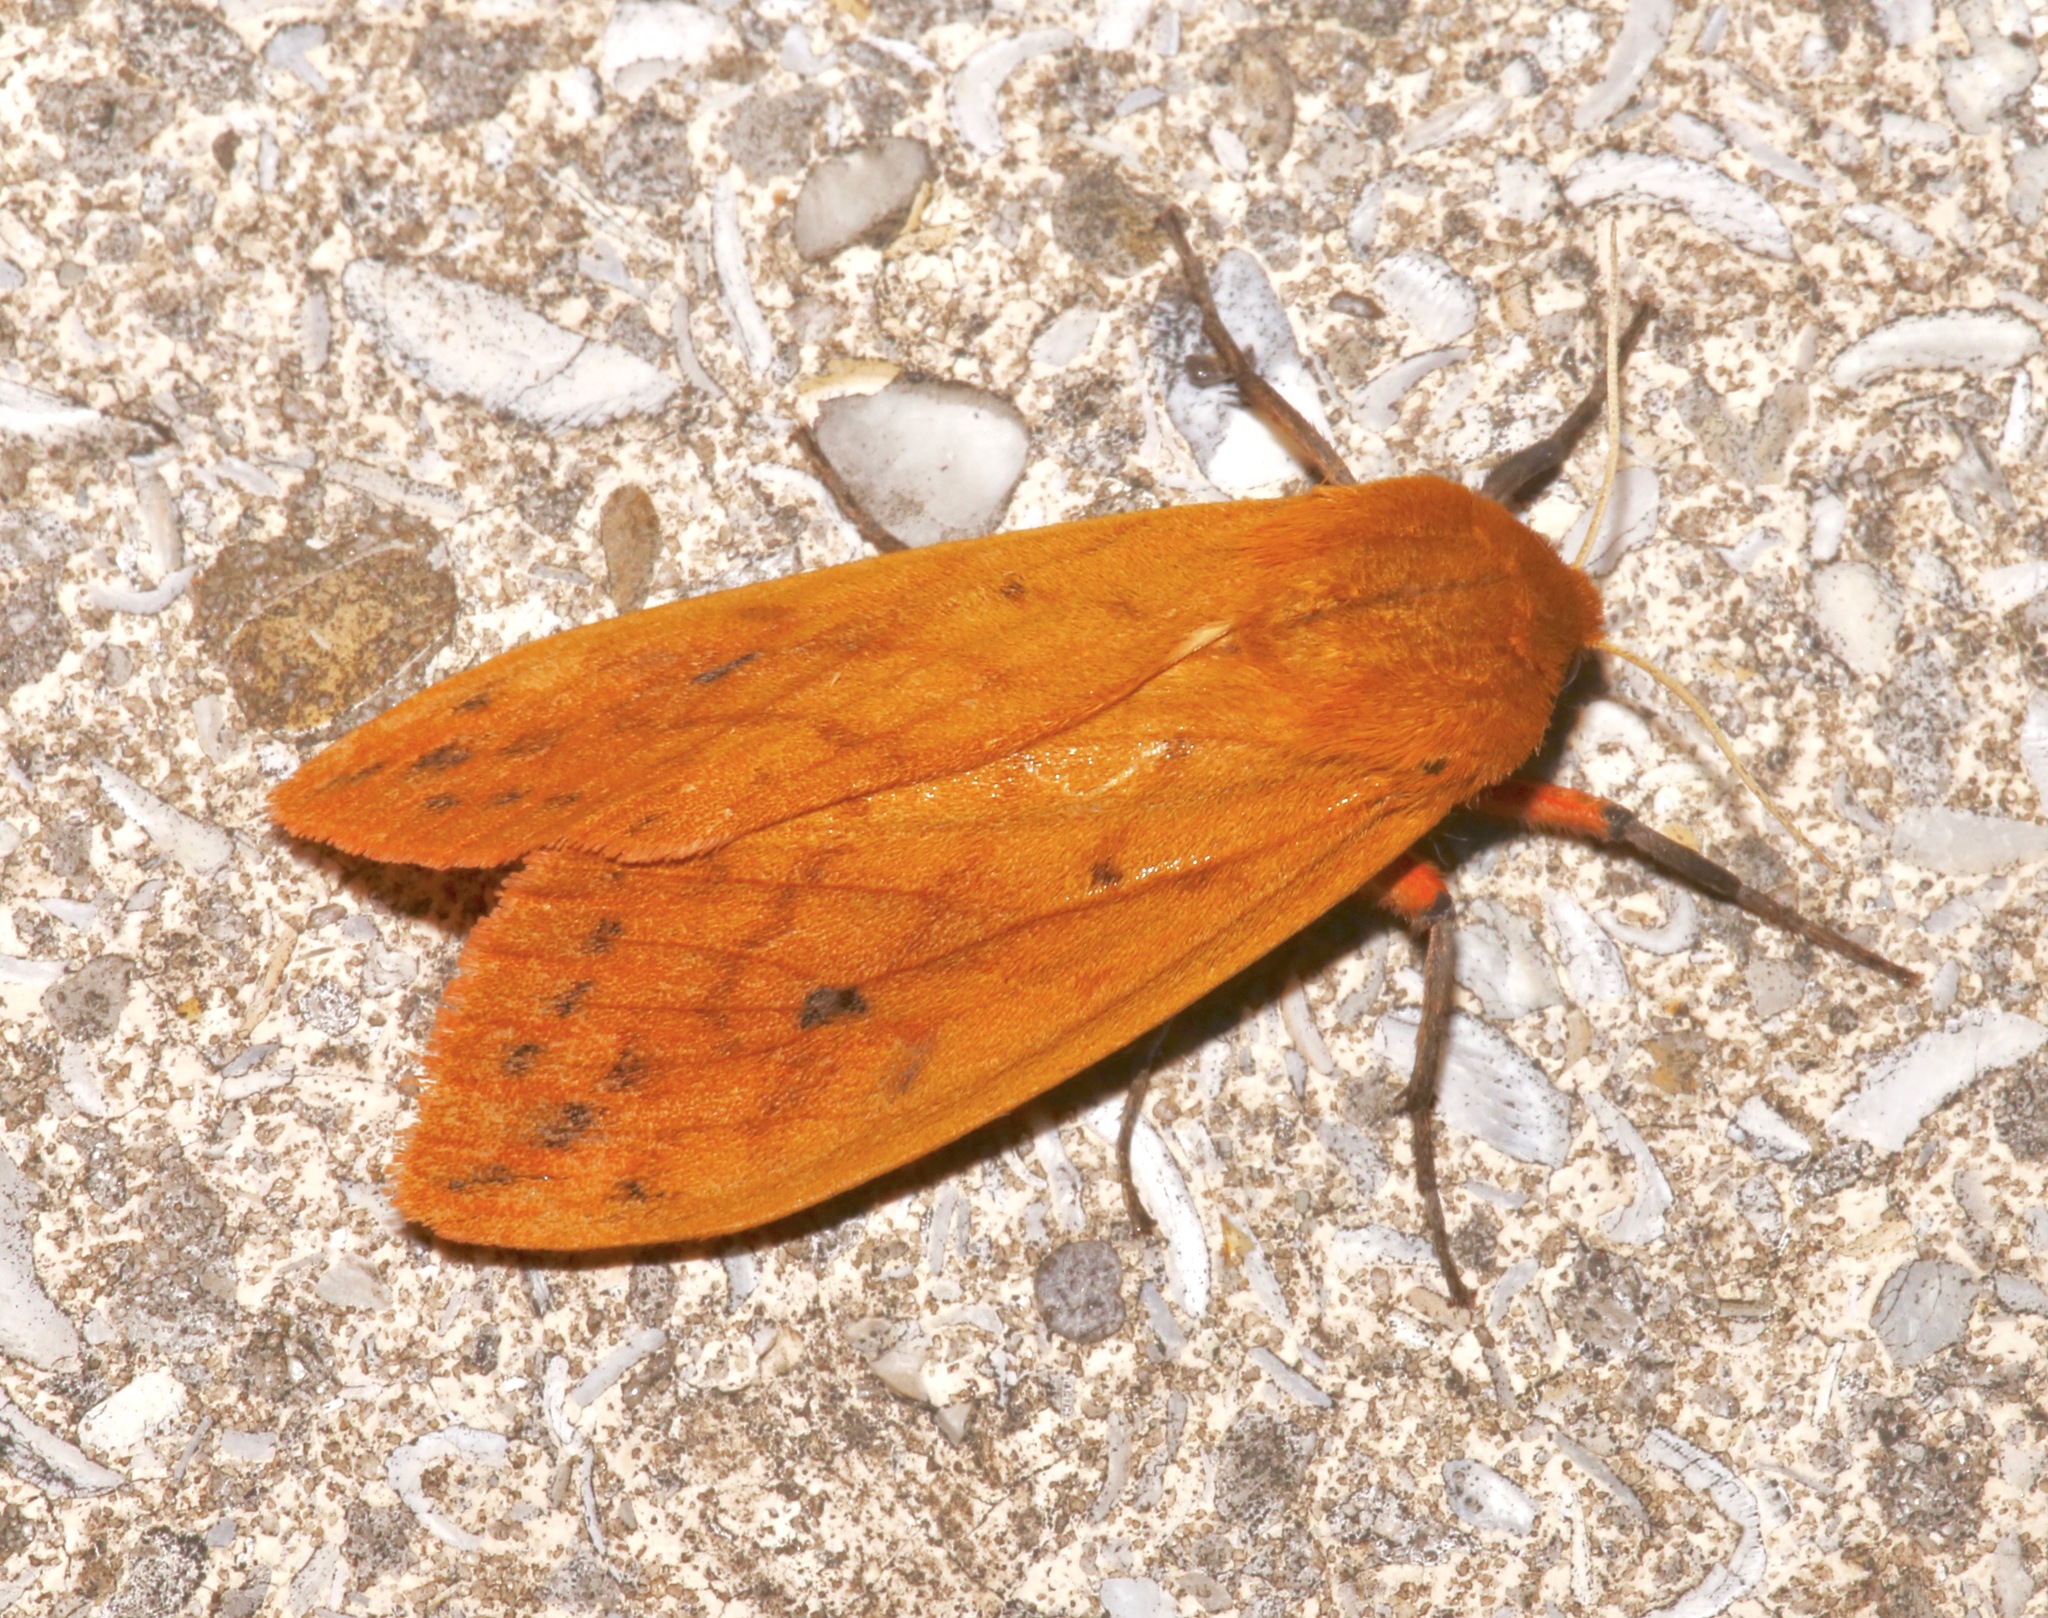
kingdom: Animalia
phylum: Arthropoda
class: Insecta
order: Lepidoptera
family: Erebidae
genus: Pyrrharctia
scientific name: Pyrrharctia isabella
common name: Isabella tiger moth
